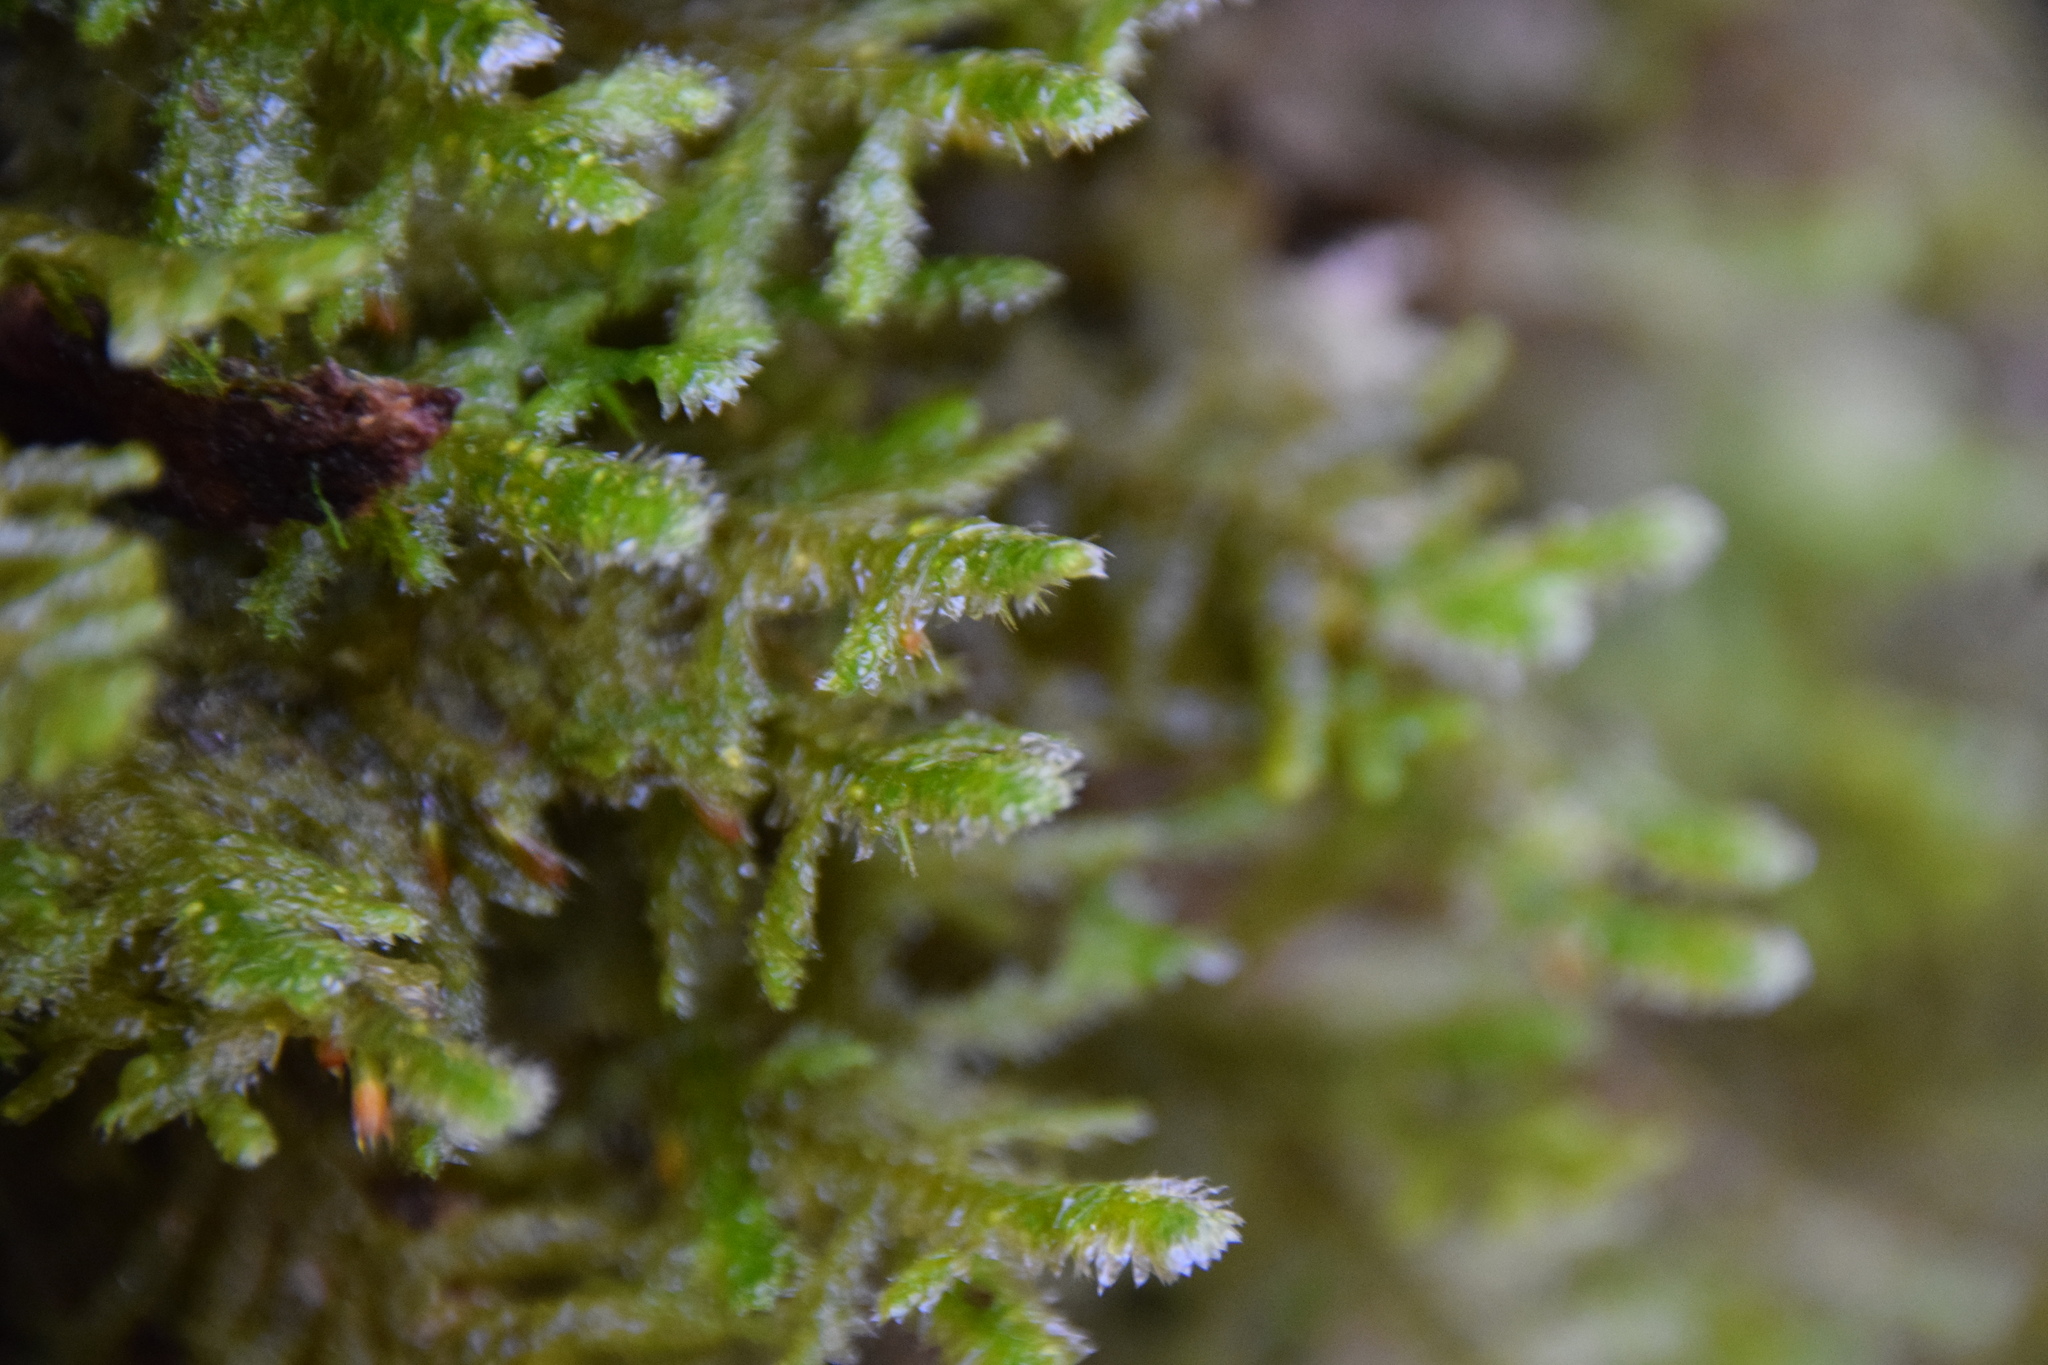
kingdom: Plantae
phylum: Bryophyta
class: Bryopsida
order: Hypnales
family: Neckeraceae
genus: Neckera
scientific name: Neckera pennata
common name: Feathery neckera
